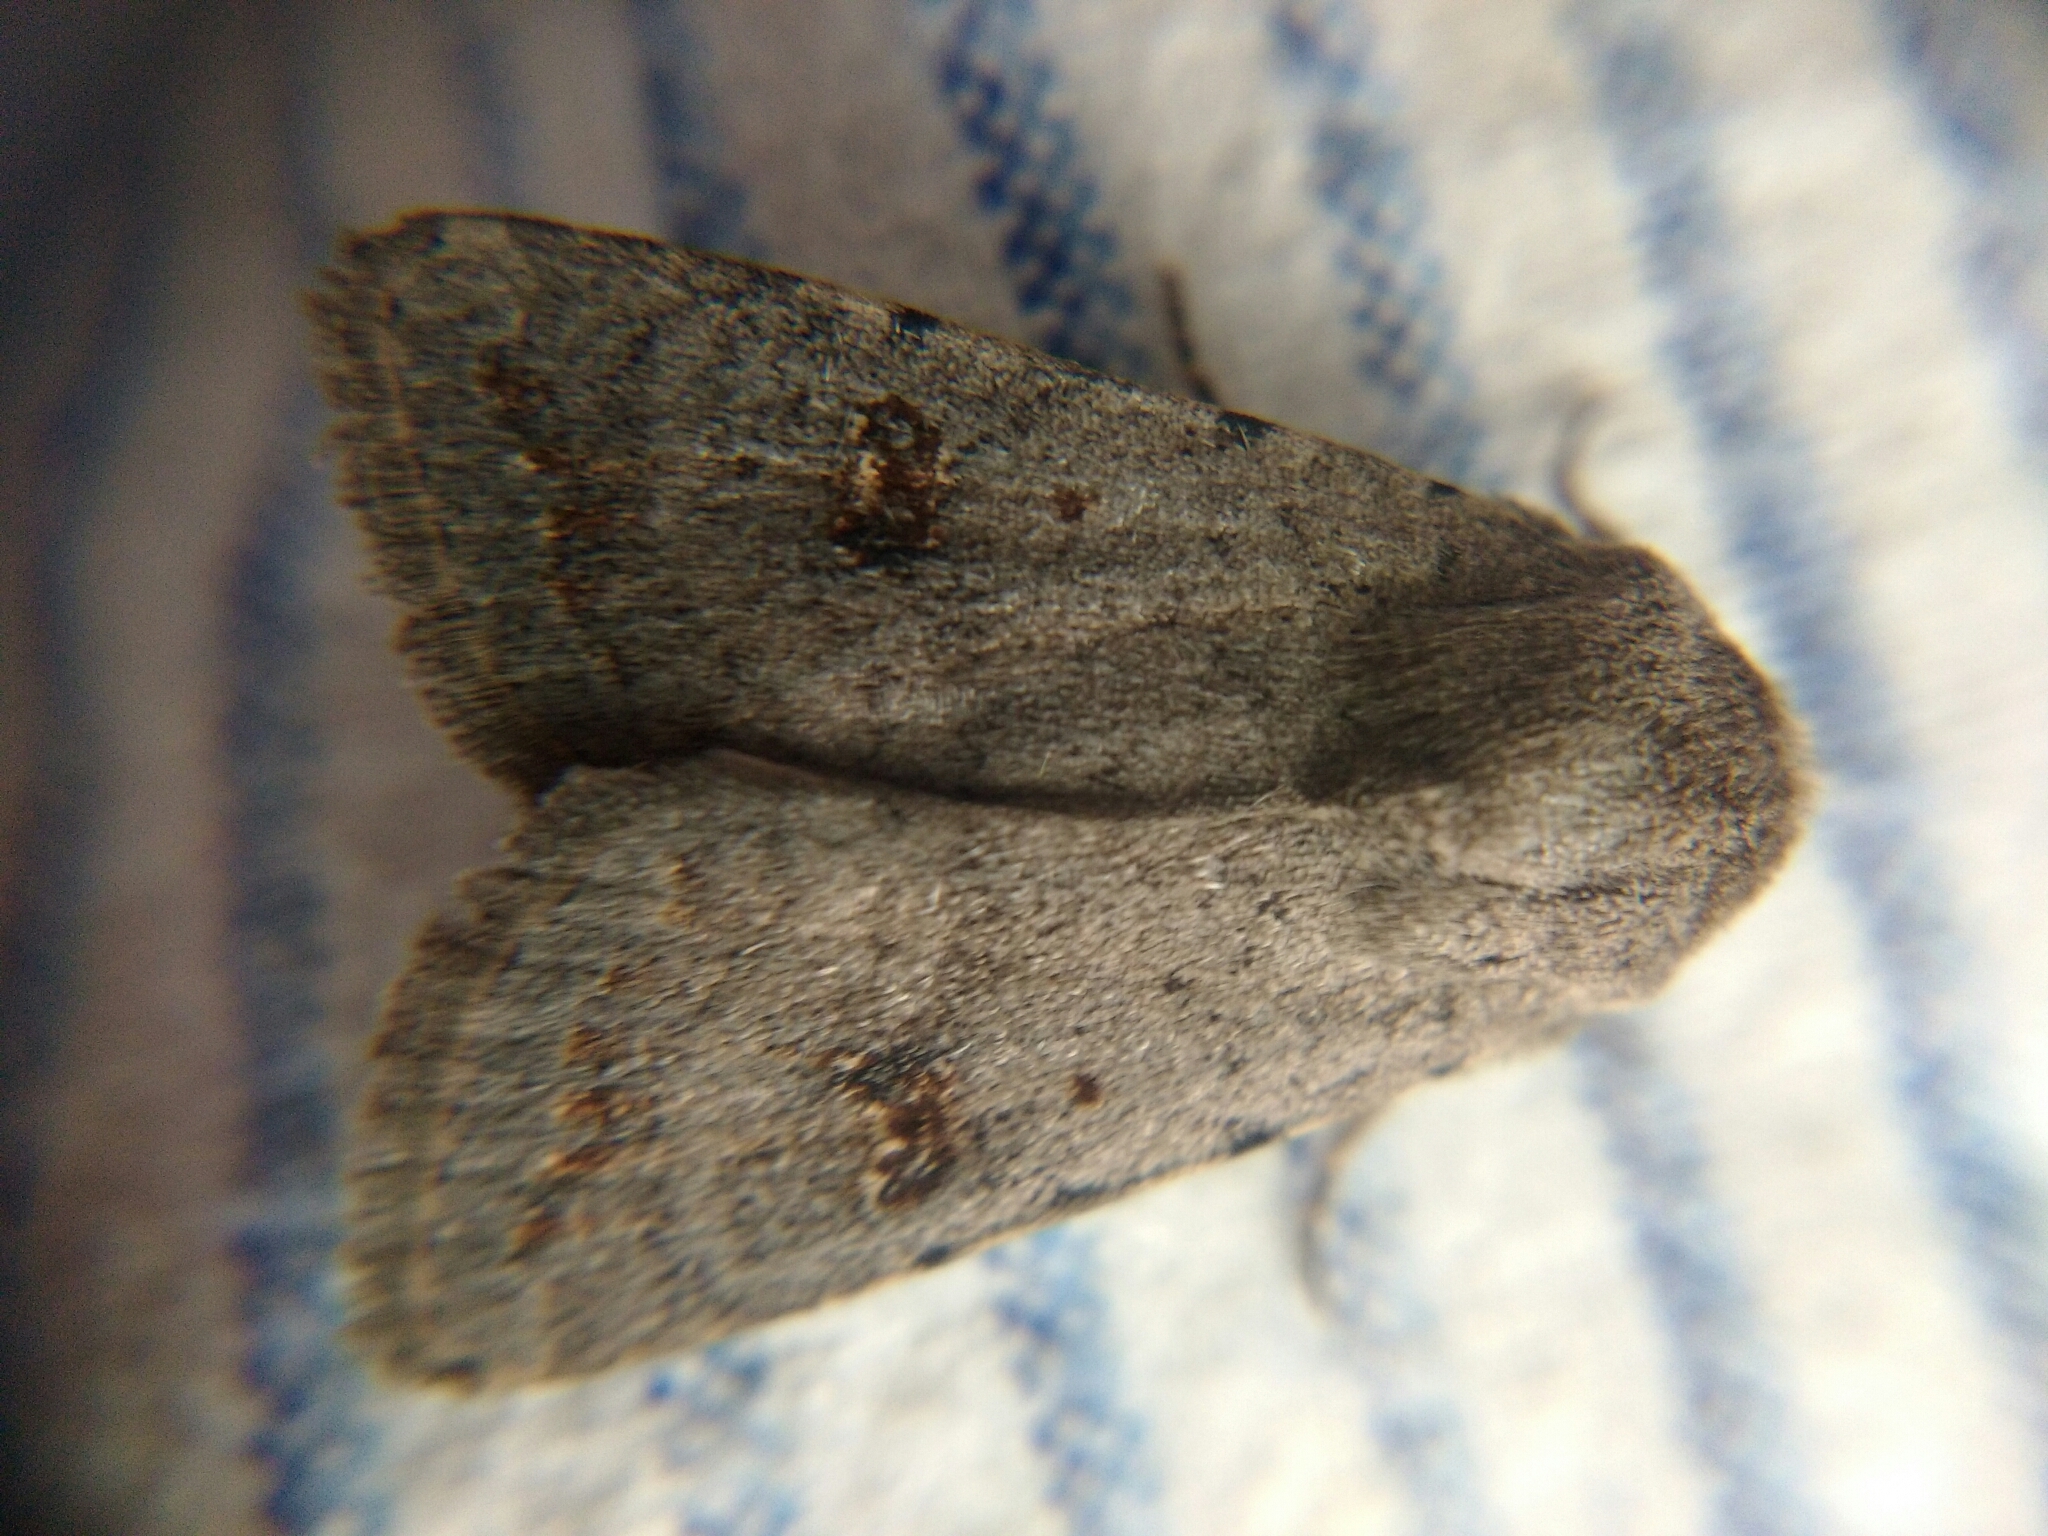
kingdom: Animalia
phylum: Arthropoda
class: Insecta
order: Lepidoptera
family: Noctuidae
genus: Caradrina
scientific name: Caradrina kadenii
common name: Clancy's rustic
